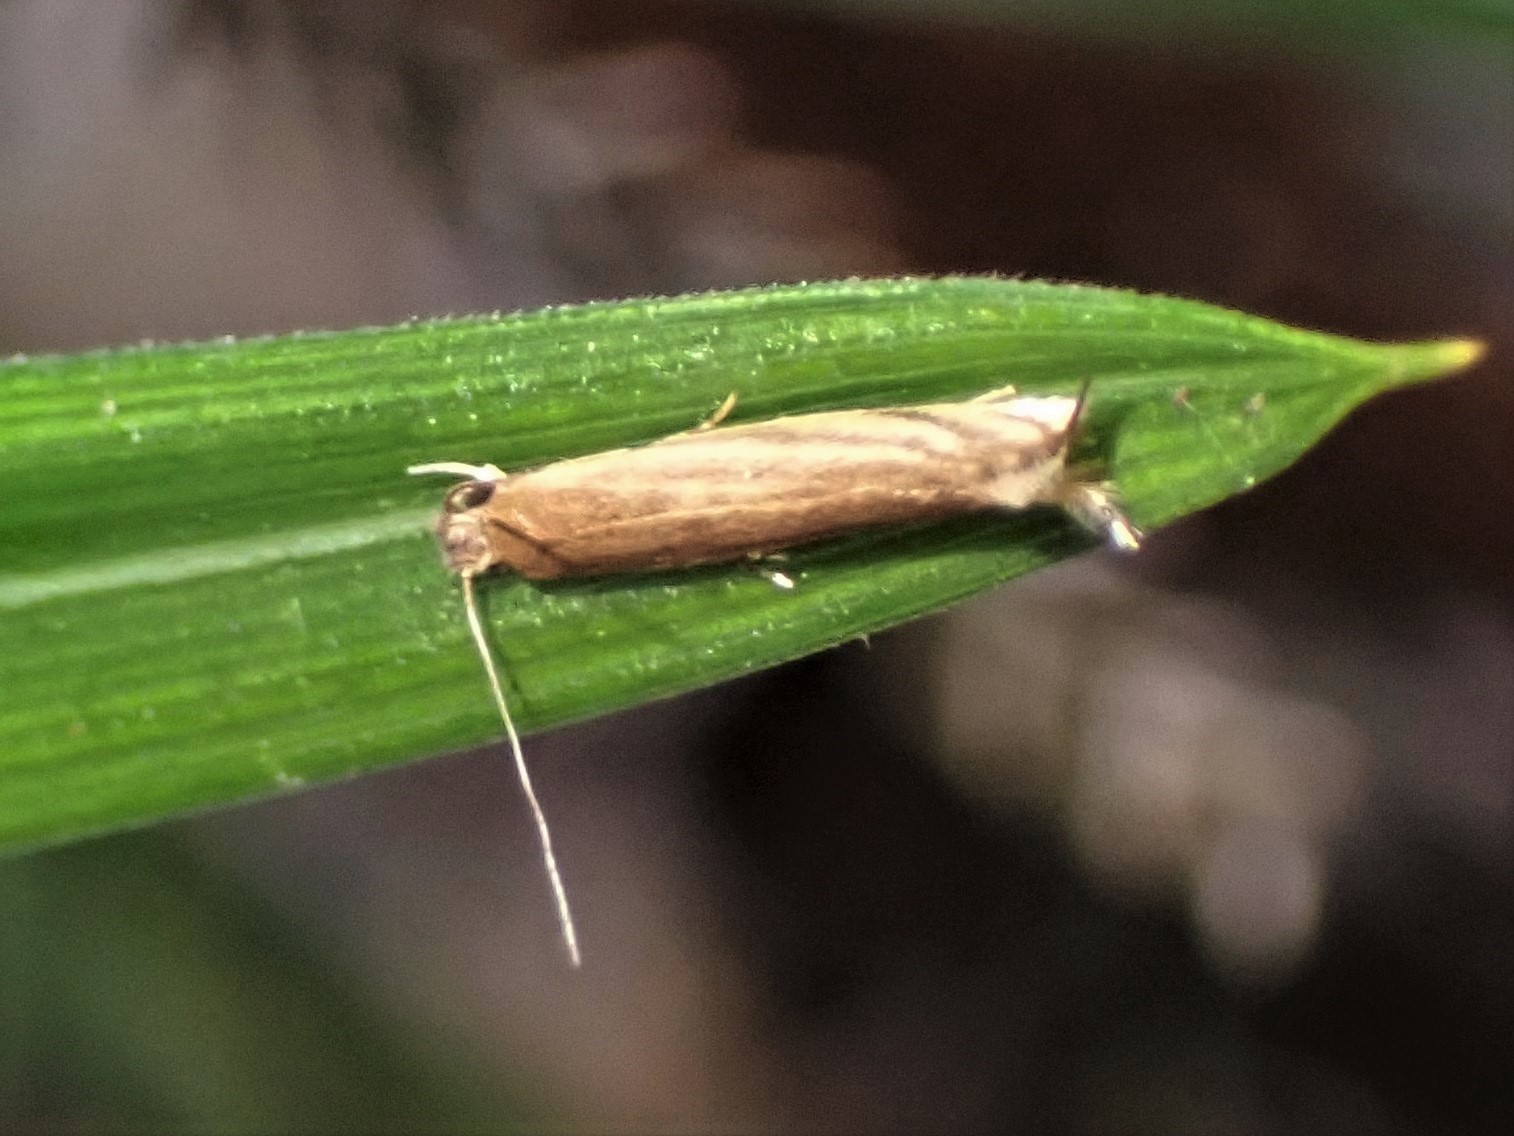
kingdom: Animalia
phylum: Arthropoda
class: Insecta
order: Lepidoptera
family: Tineidae
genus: Erechthias
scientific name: Erechthias exospila
